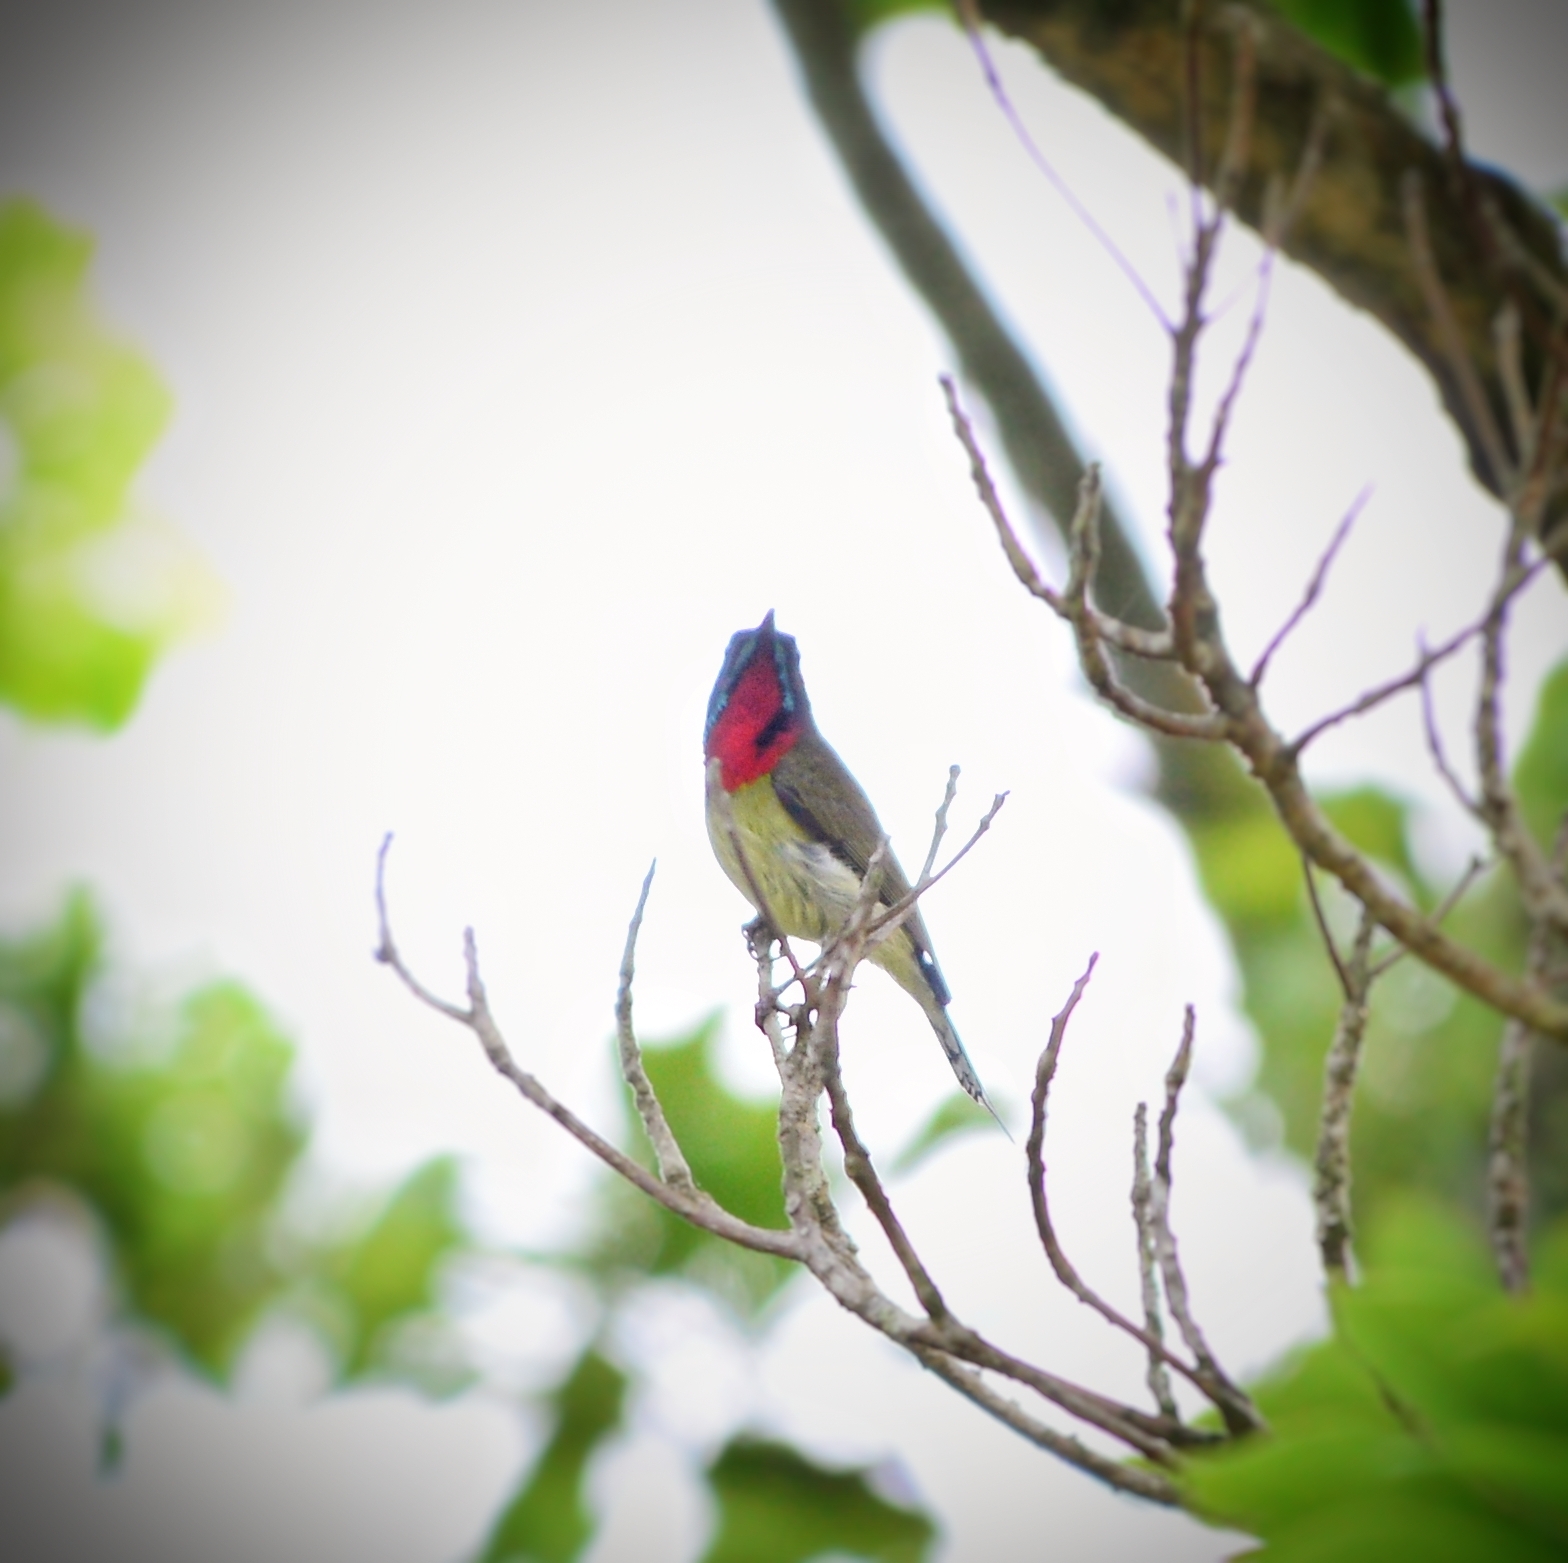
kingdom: Animalia
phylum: Chordata
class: Aves
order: Passeriformes
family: Nectariniidae
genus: Aethopyga
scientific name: Aethopyga christinae
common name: Fork-tailed sunbird
